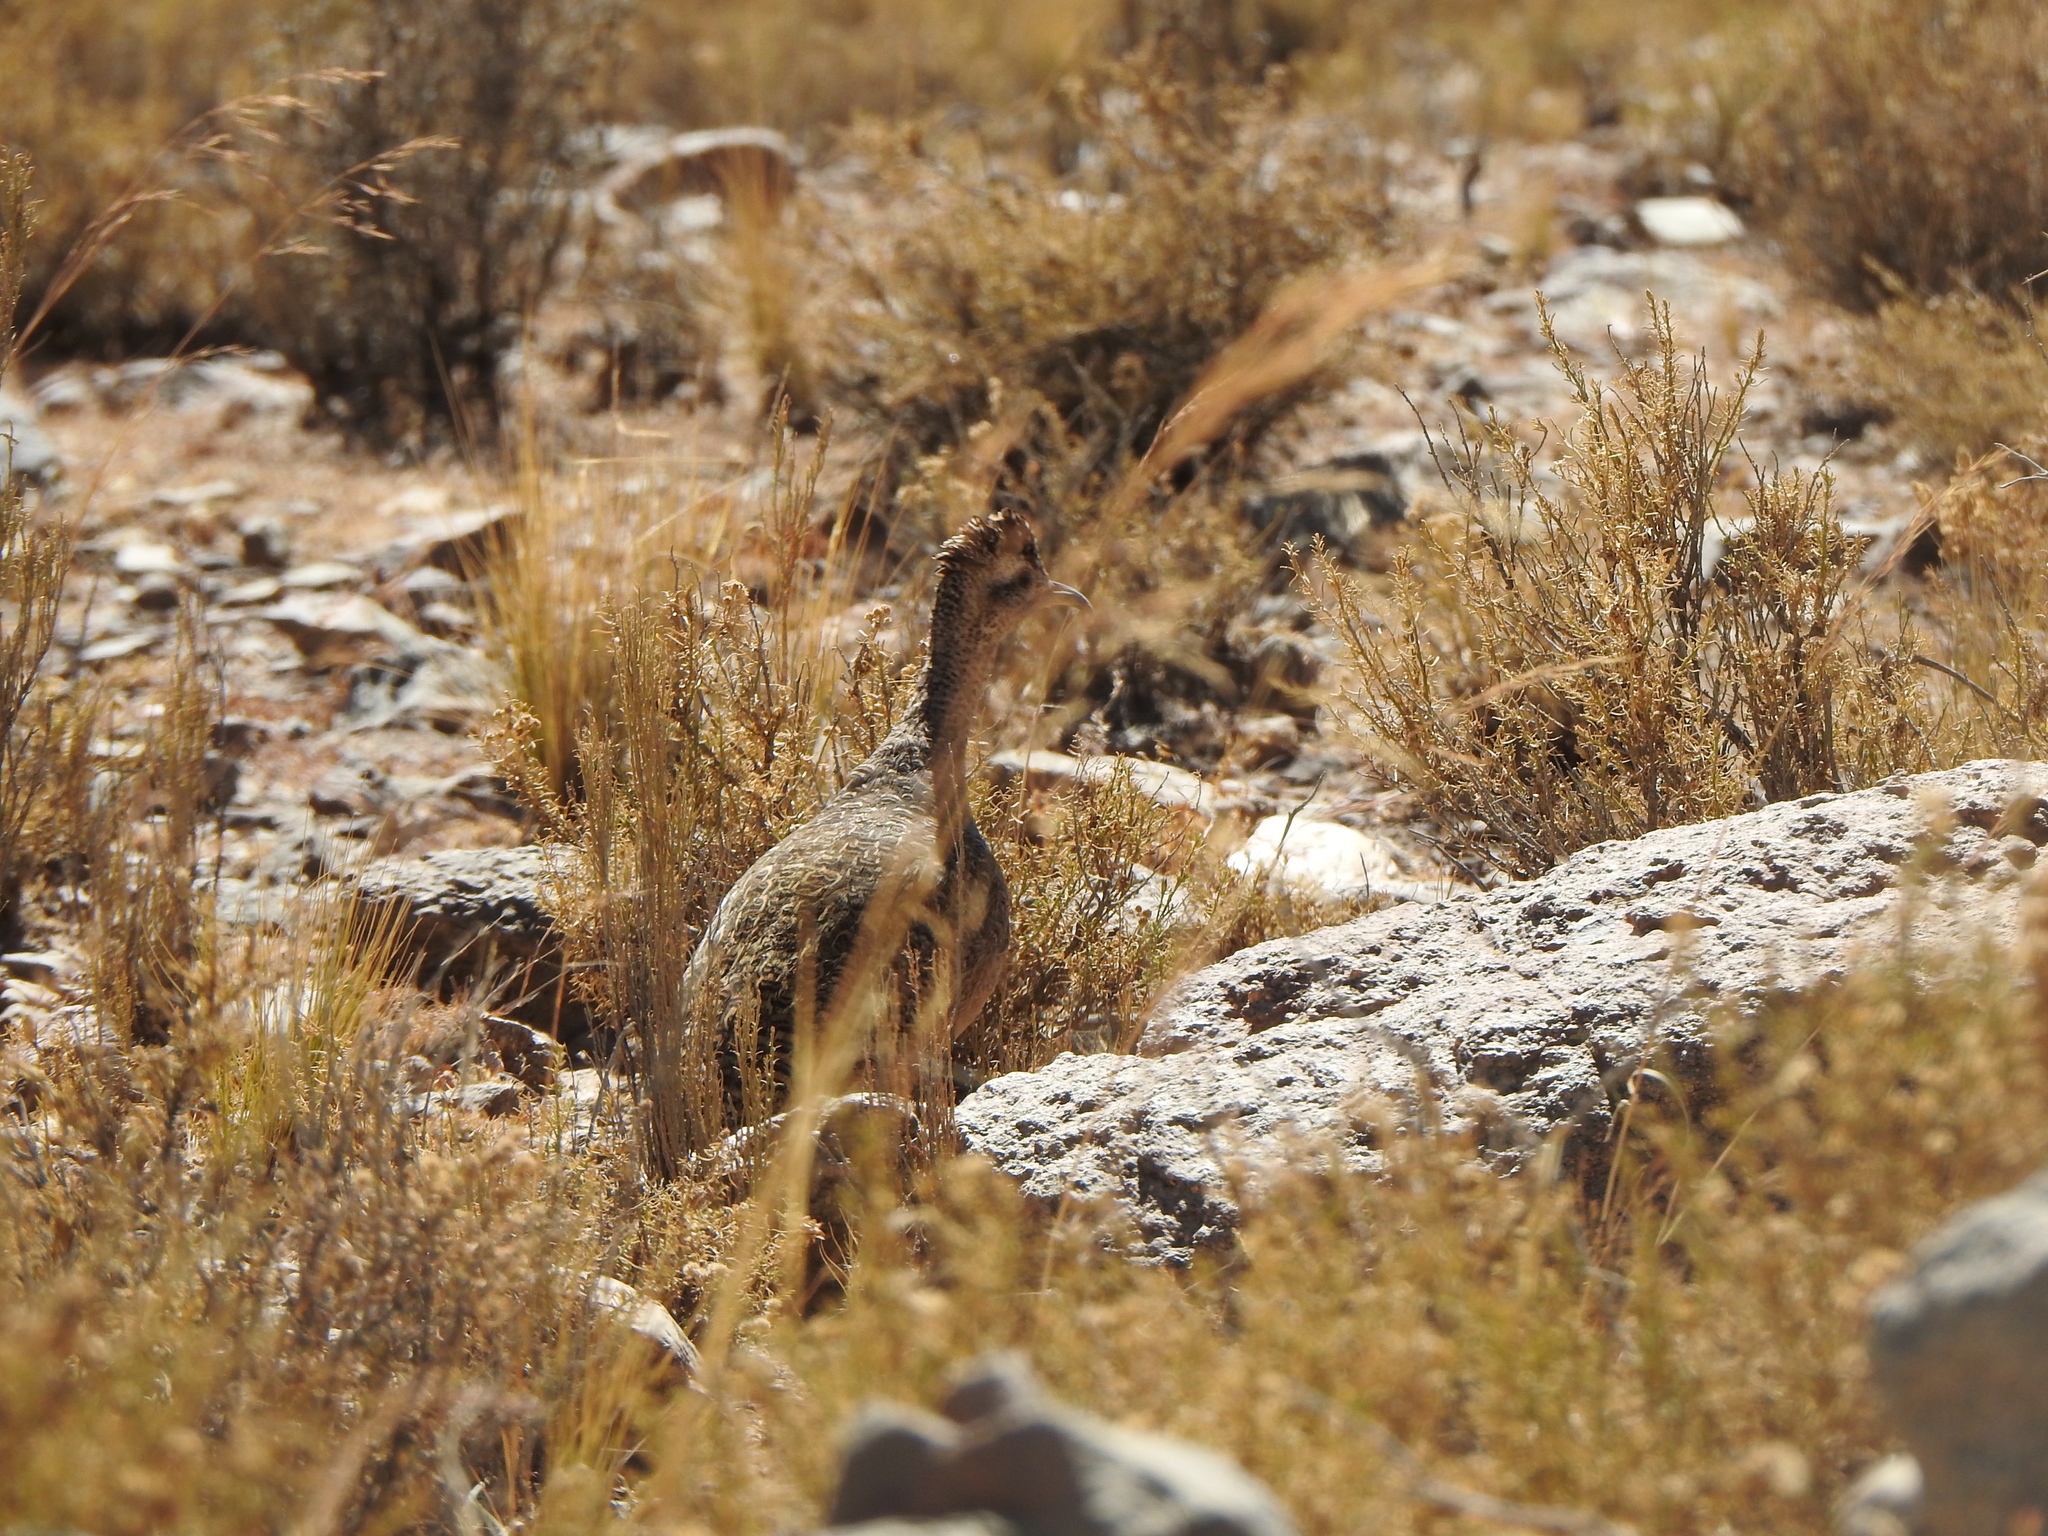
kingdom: Animalia
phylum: Chordata
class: Aves
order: Tinamiformes
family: Tinamidae
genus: Nothoprocta
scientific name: Nothoprocta ornata
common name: Ornate tinamou
